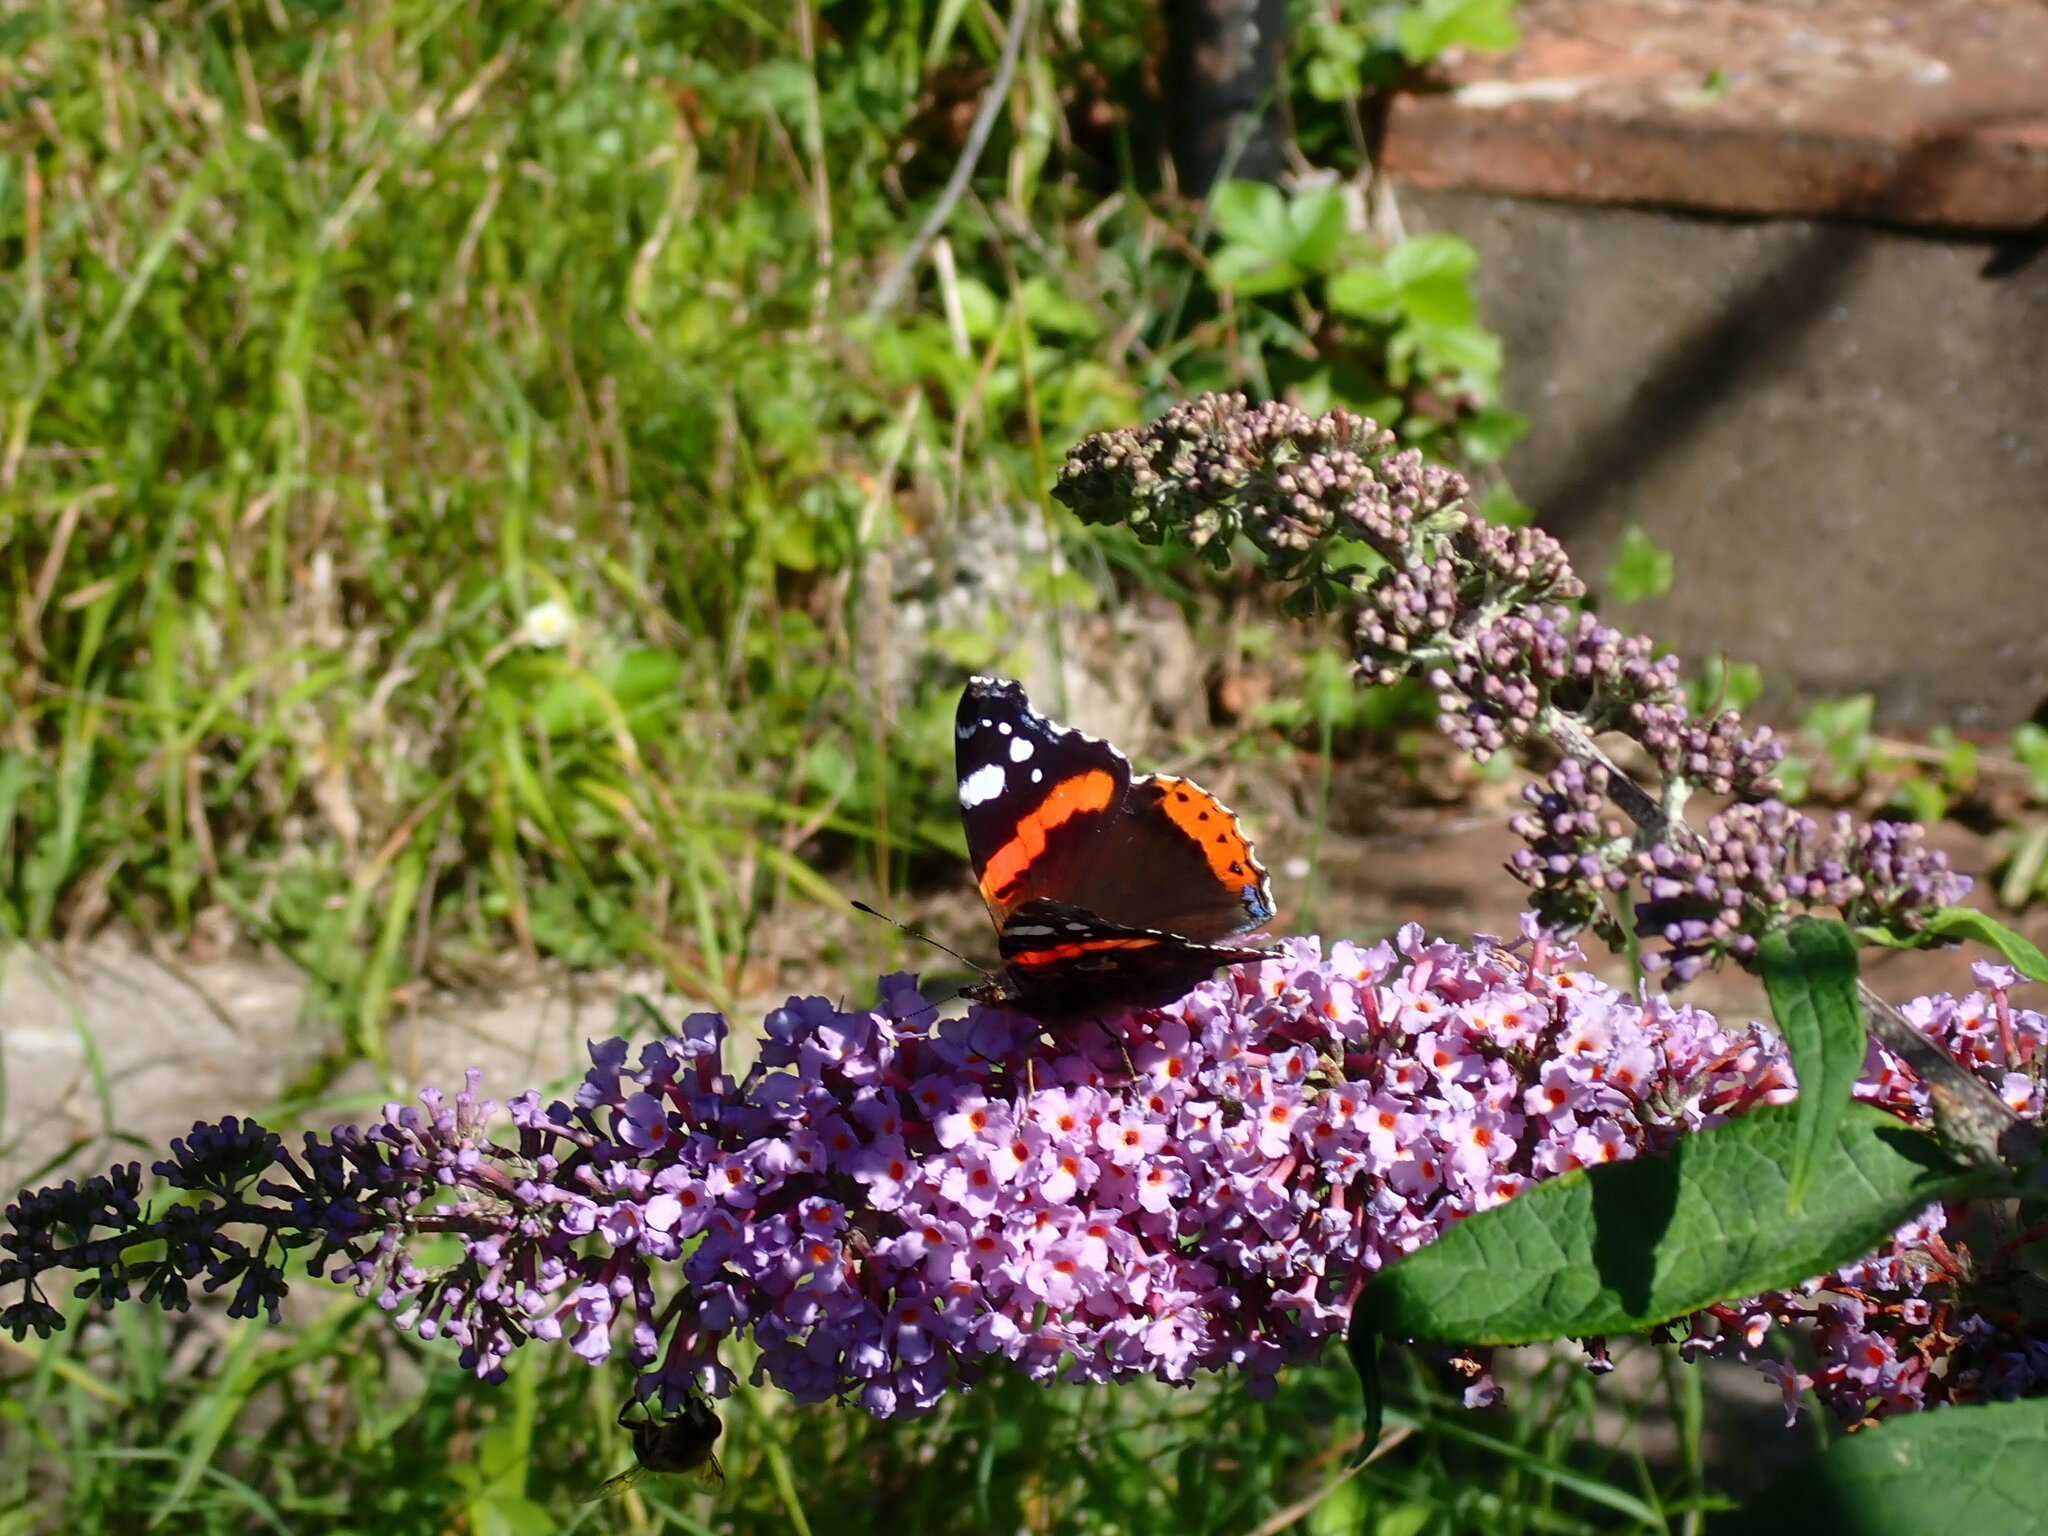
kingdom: Animalia
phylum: Arthropoda
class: Insecta
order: Lepidoptera
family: Nymphalidae
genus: Vanessa
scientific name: Vanessa atalanta
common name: Red admiral
